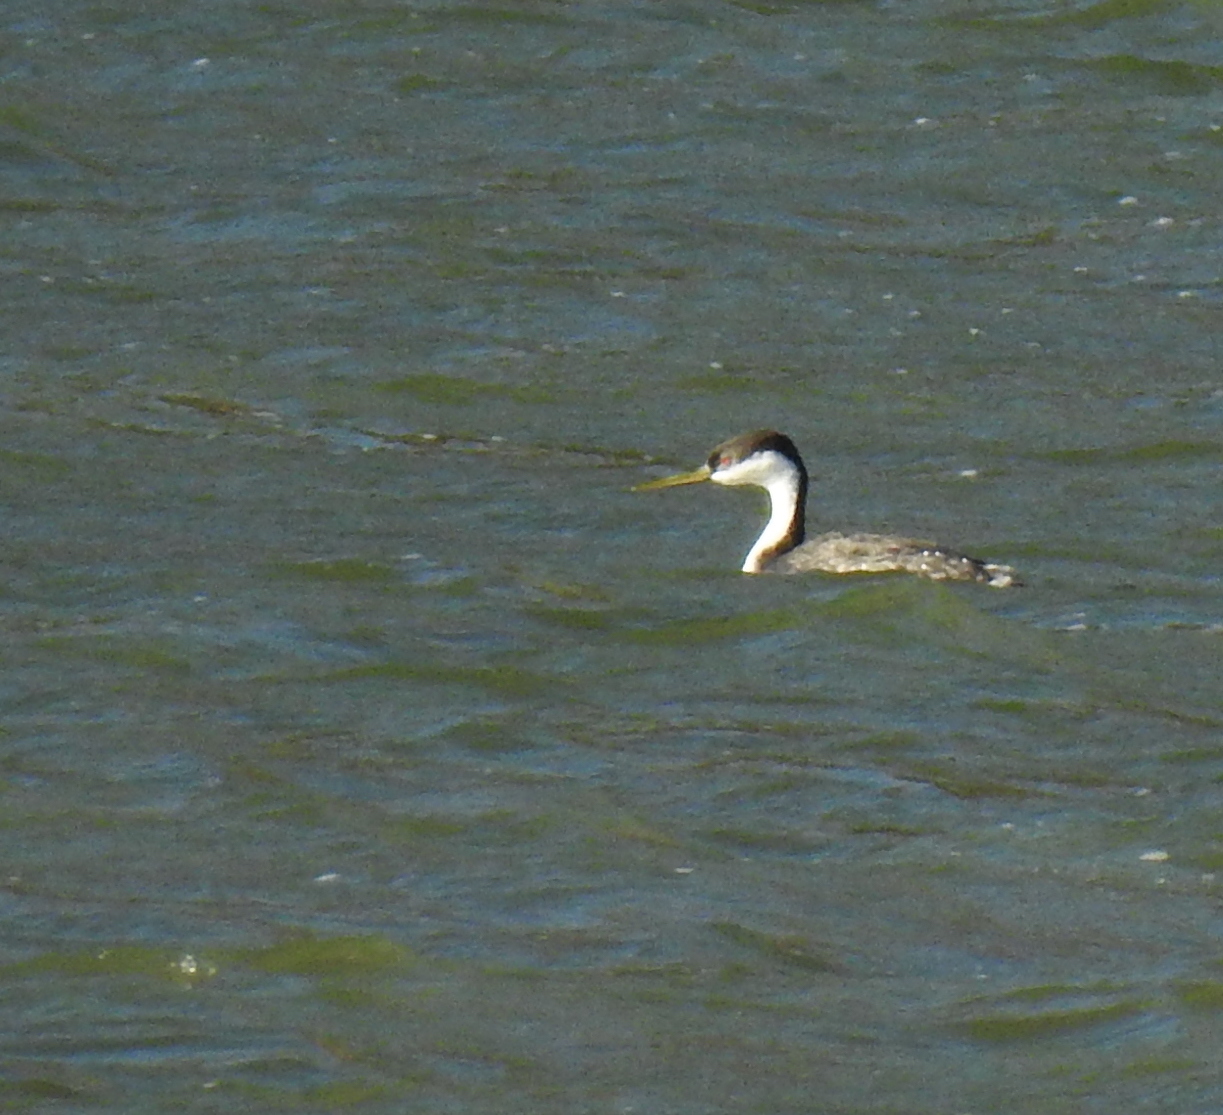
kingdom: Animalia
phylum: Chordata
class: Aves
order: Podicipediformes
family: Podicipedidae
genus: Aechmophorus
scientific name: Aechmophorus occidentalis
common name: Western grebe
